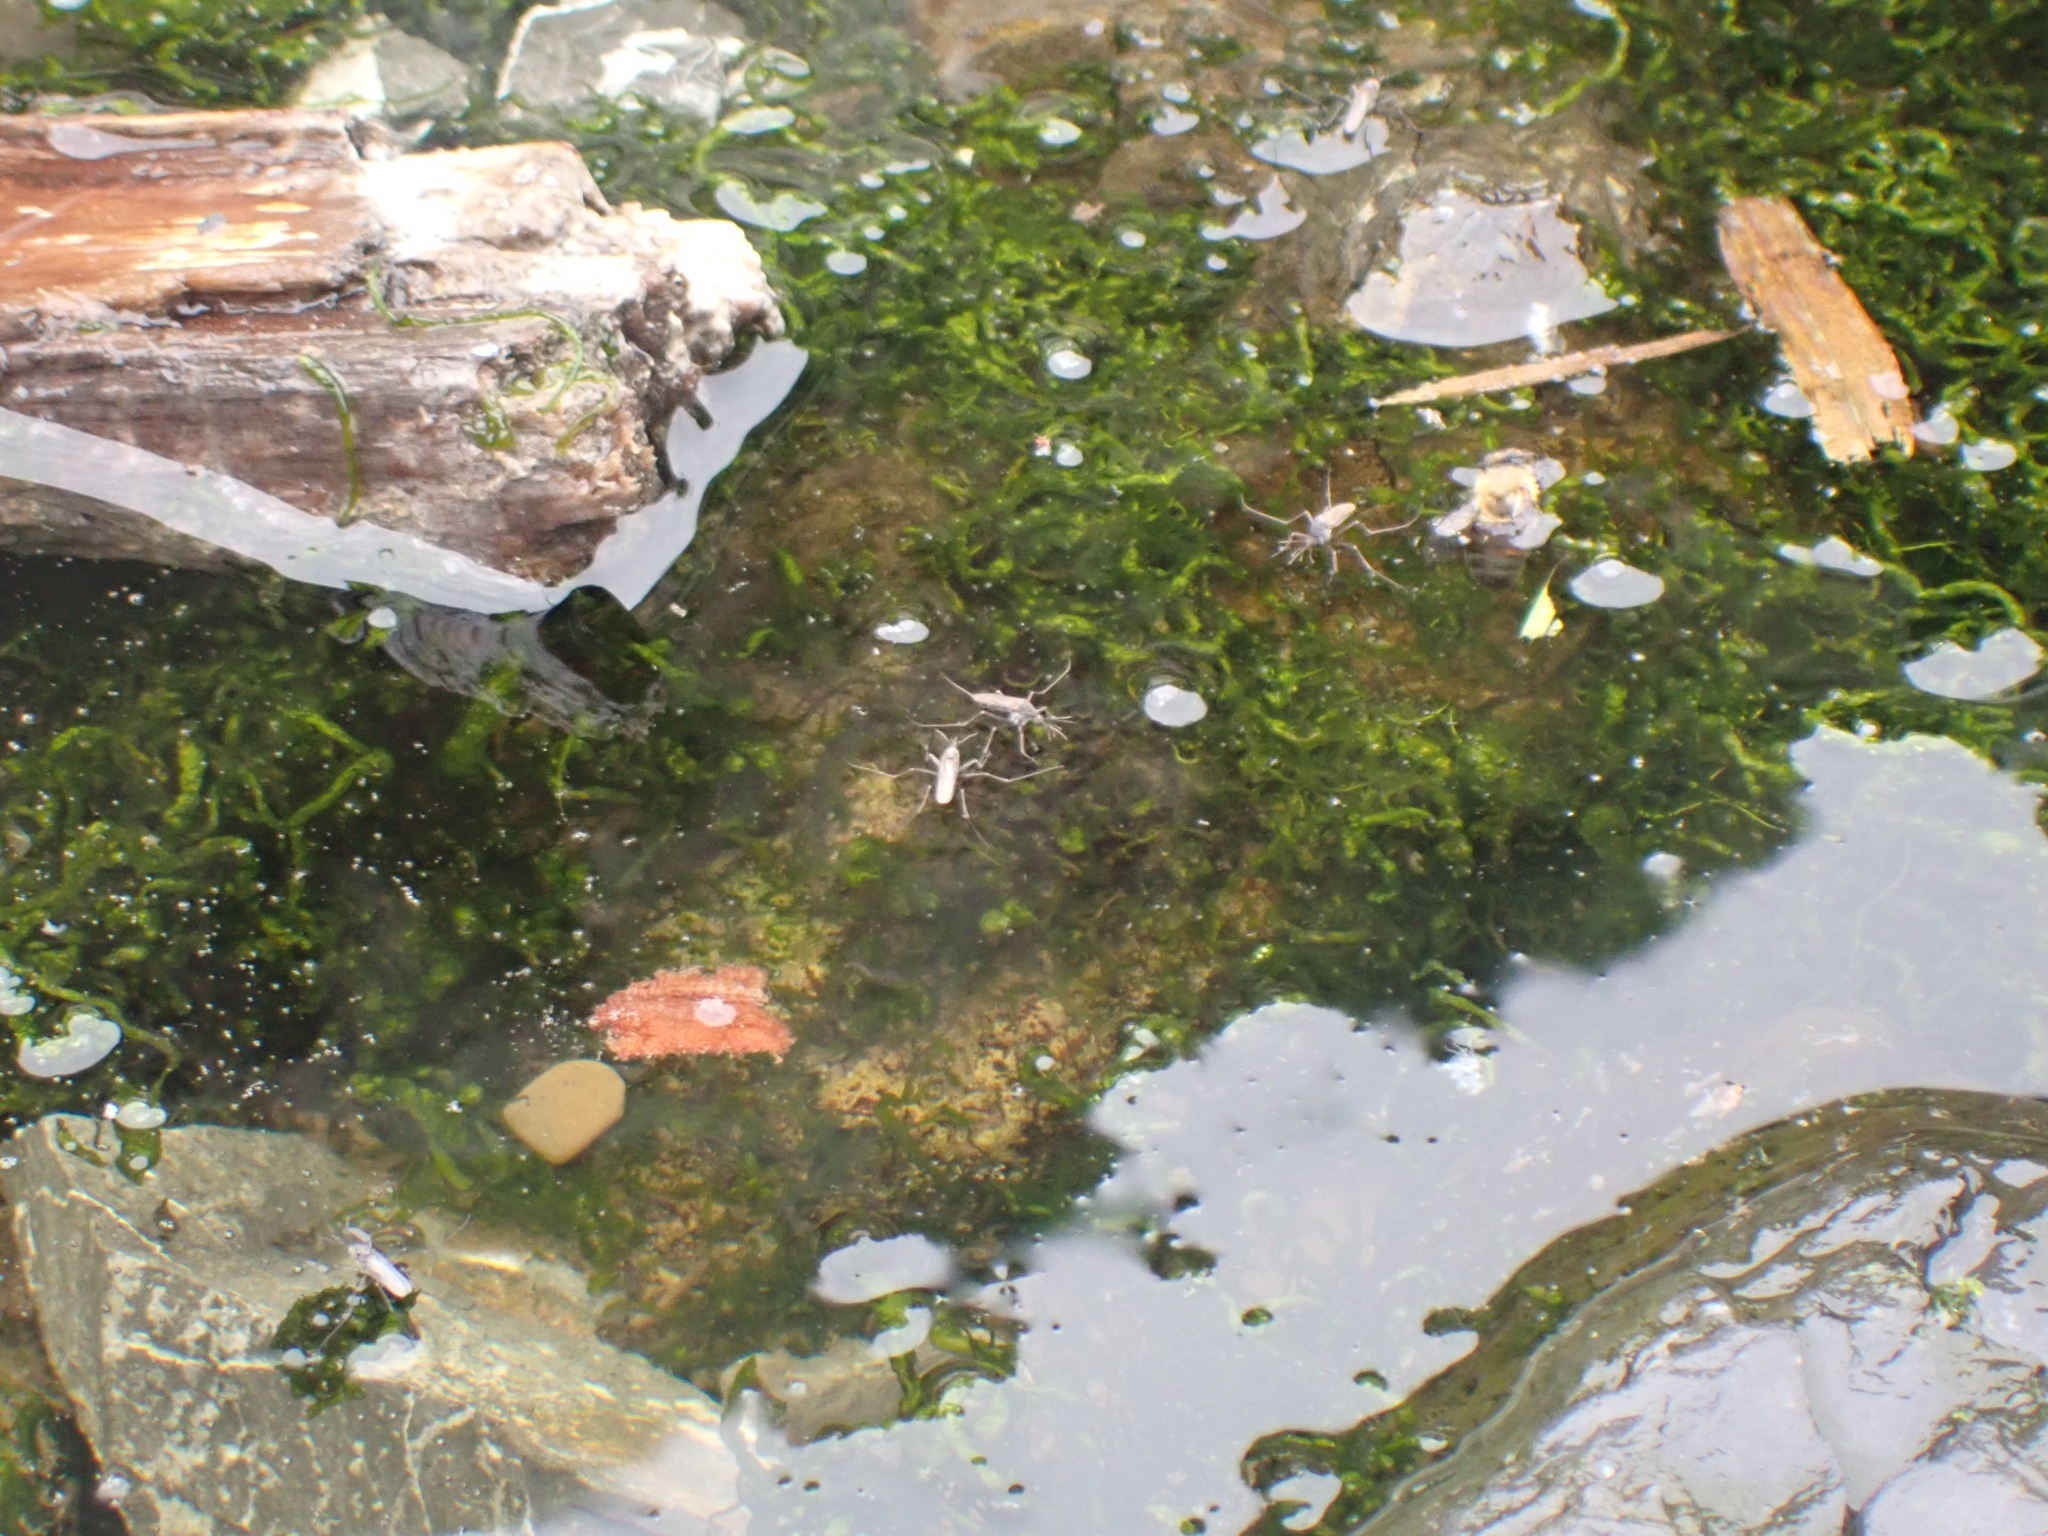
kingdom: Animalia
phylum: Arthropoda
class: Insecta
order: Diptera
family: Culicidae
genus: Opifex
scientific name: Opifex fuscus
